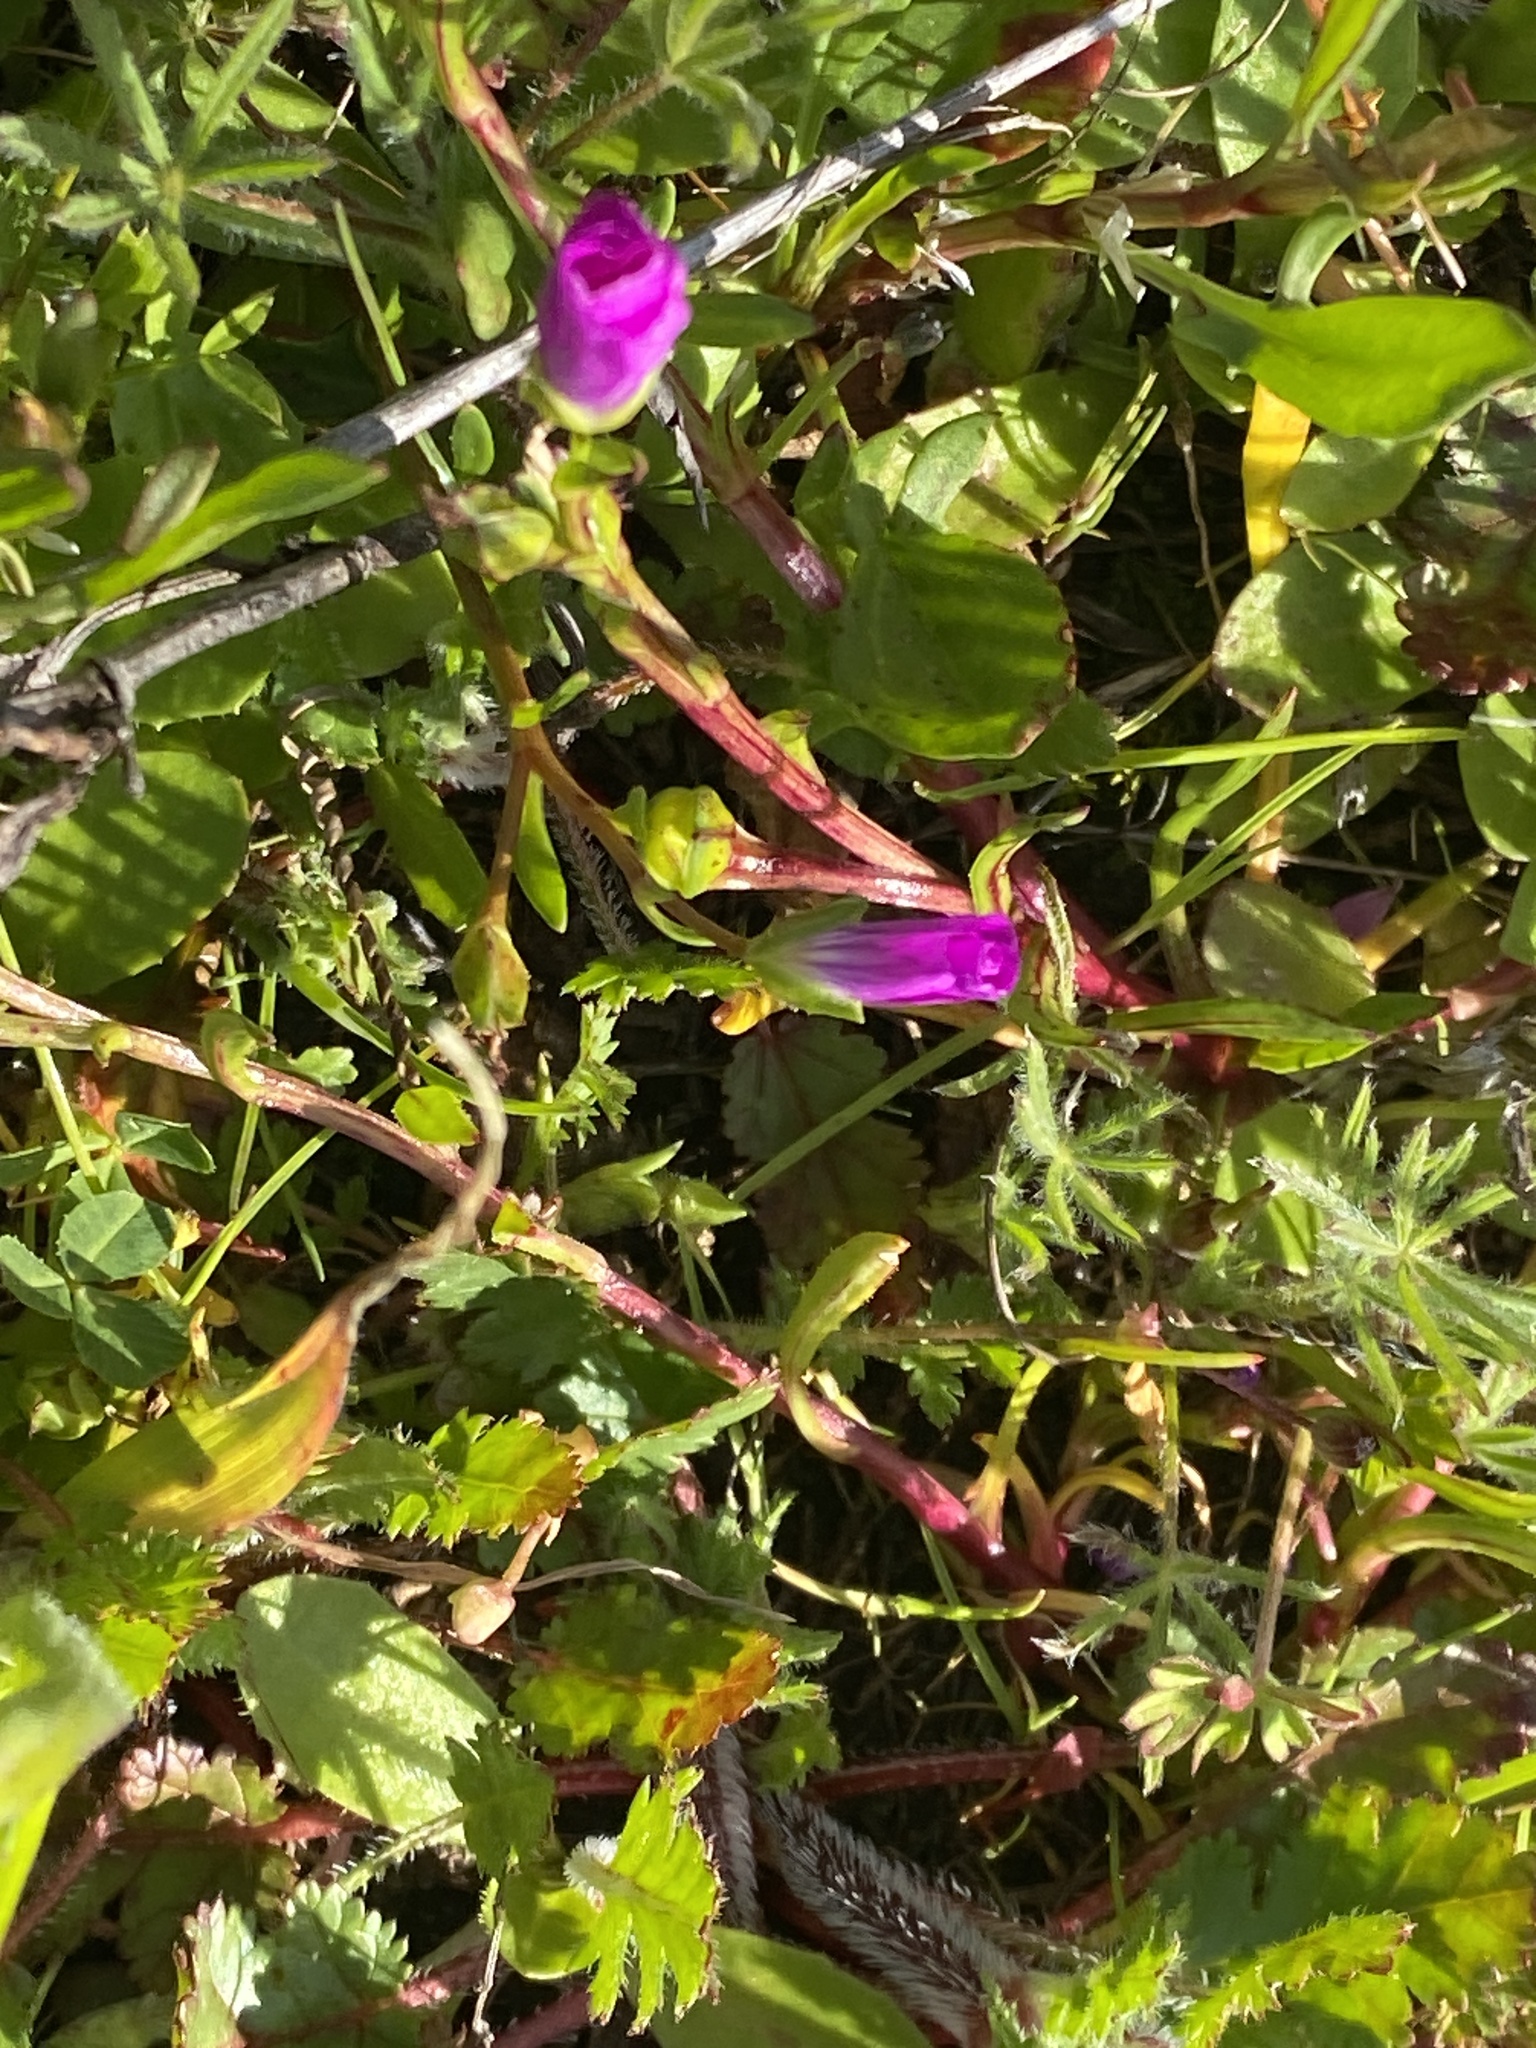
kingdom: Plantae
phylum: Tracheophyta
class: Magnoliopsida
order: Caryophyllales
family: Montiaceae
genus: Calandrinia
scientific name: Calandrinia menziesii
